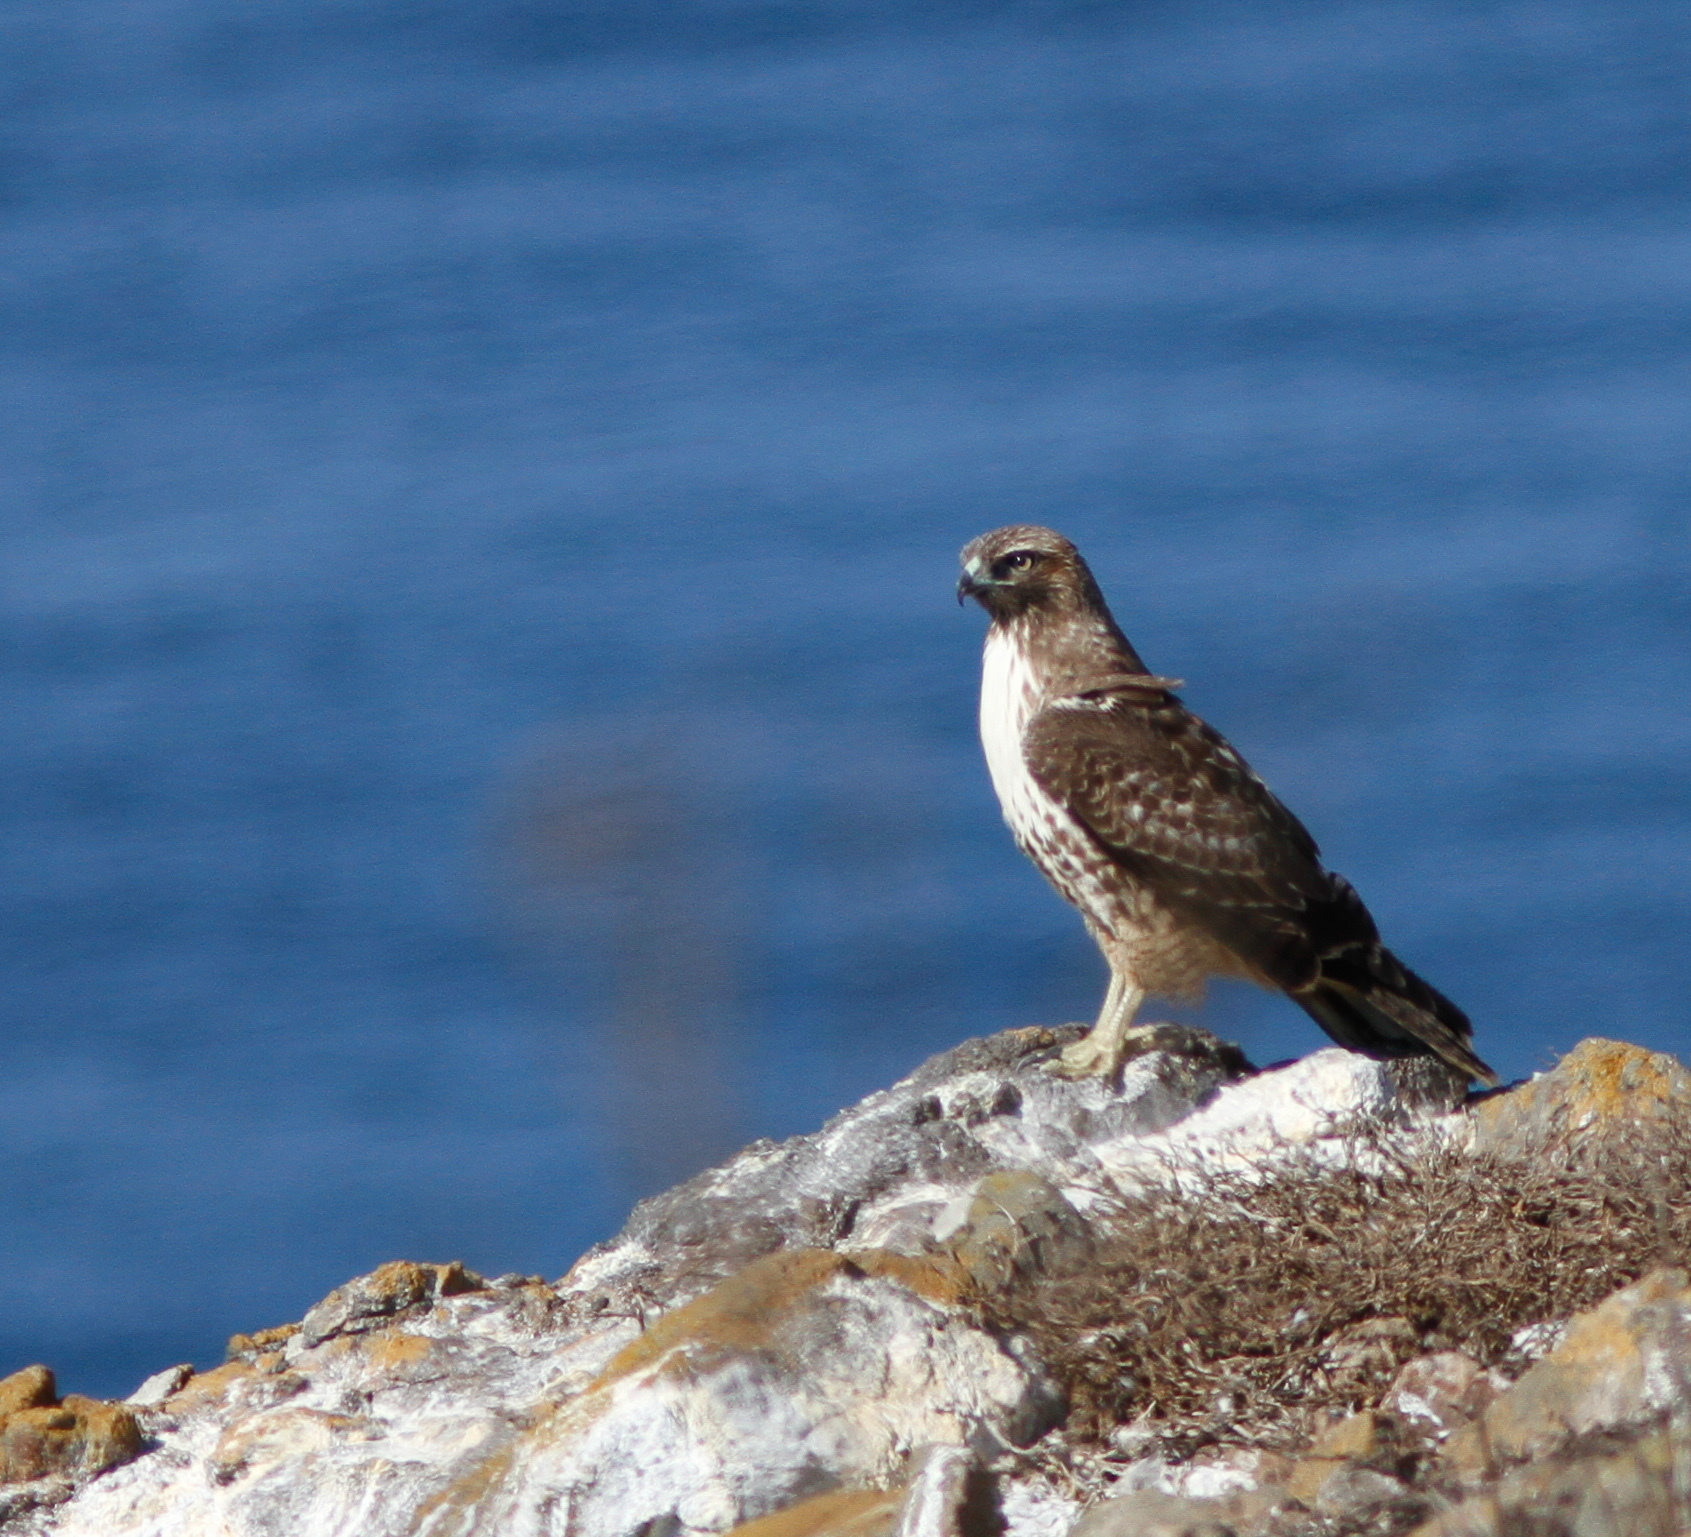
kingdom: Animalia
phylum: Chordata
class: Aves
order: Accipitriformes
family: Accipitridae
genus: Buteo
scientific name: Buteo jamaicensis
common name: Red-tailed hawk
